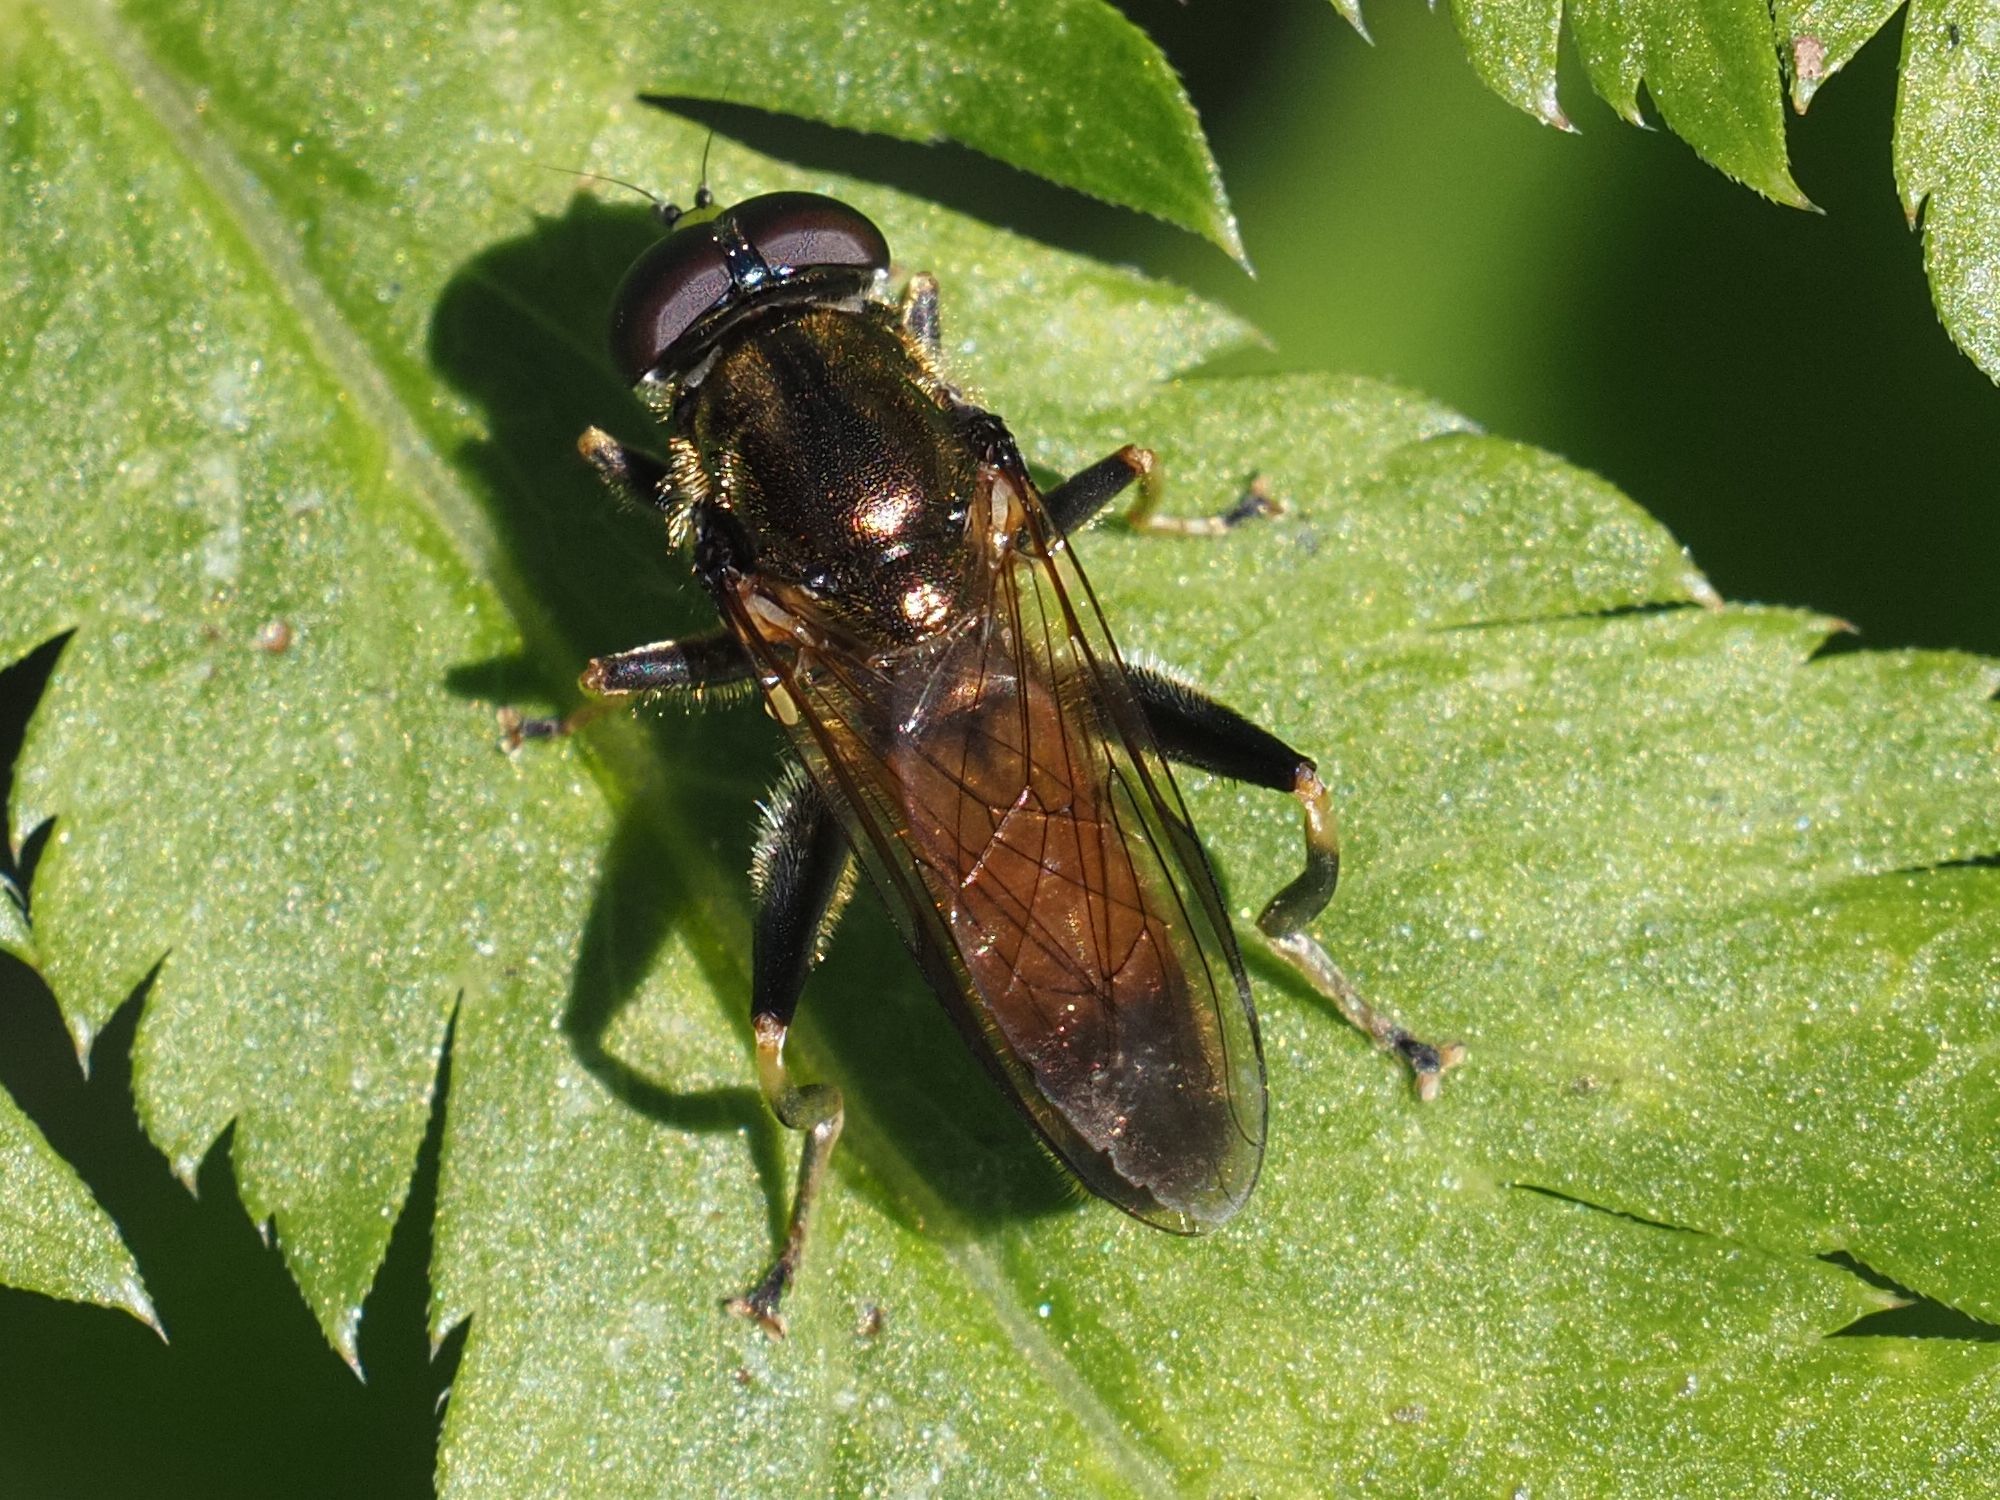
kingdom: Animalia
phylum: Arthropoda
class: Insecta
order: Diptera
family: Syrphidae
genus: Xylota
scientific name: Xylota segnis
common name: Brown-toed forest fly
